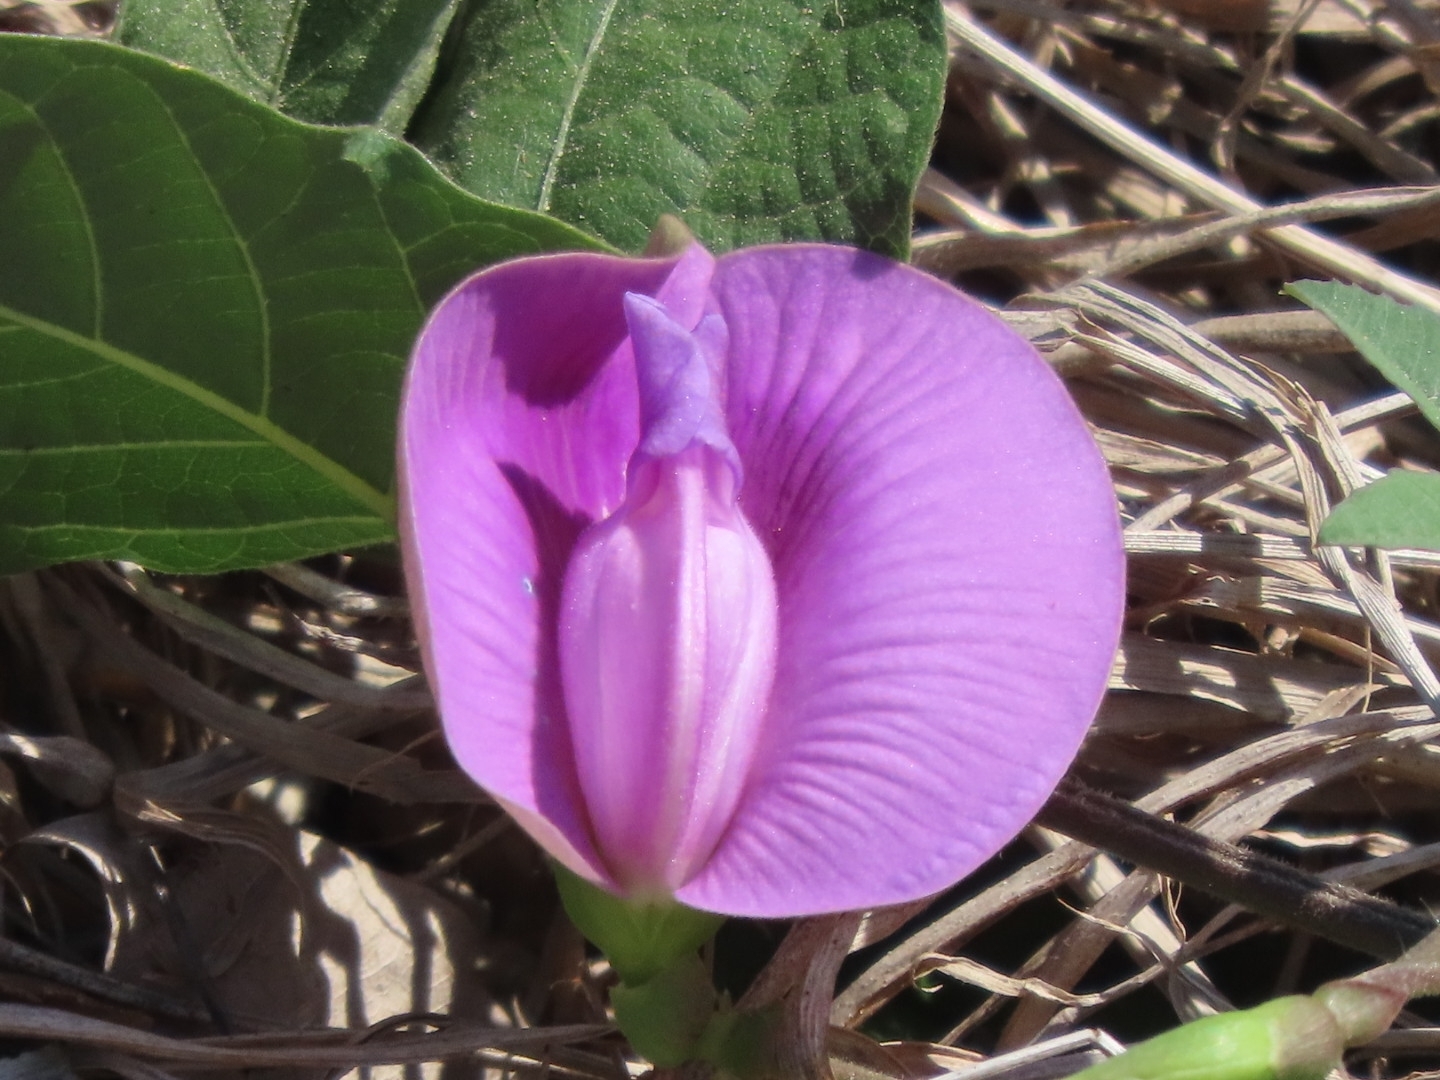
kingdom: Plantae
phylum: Tracheophyta
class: Magnoliopsida
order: Fabales
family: Fabaceae
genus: Centrosema
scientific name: Centrosema virginianum
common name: Butterfly-pea
